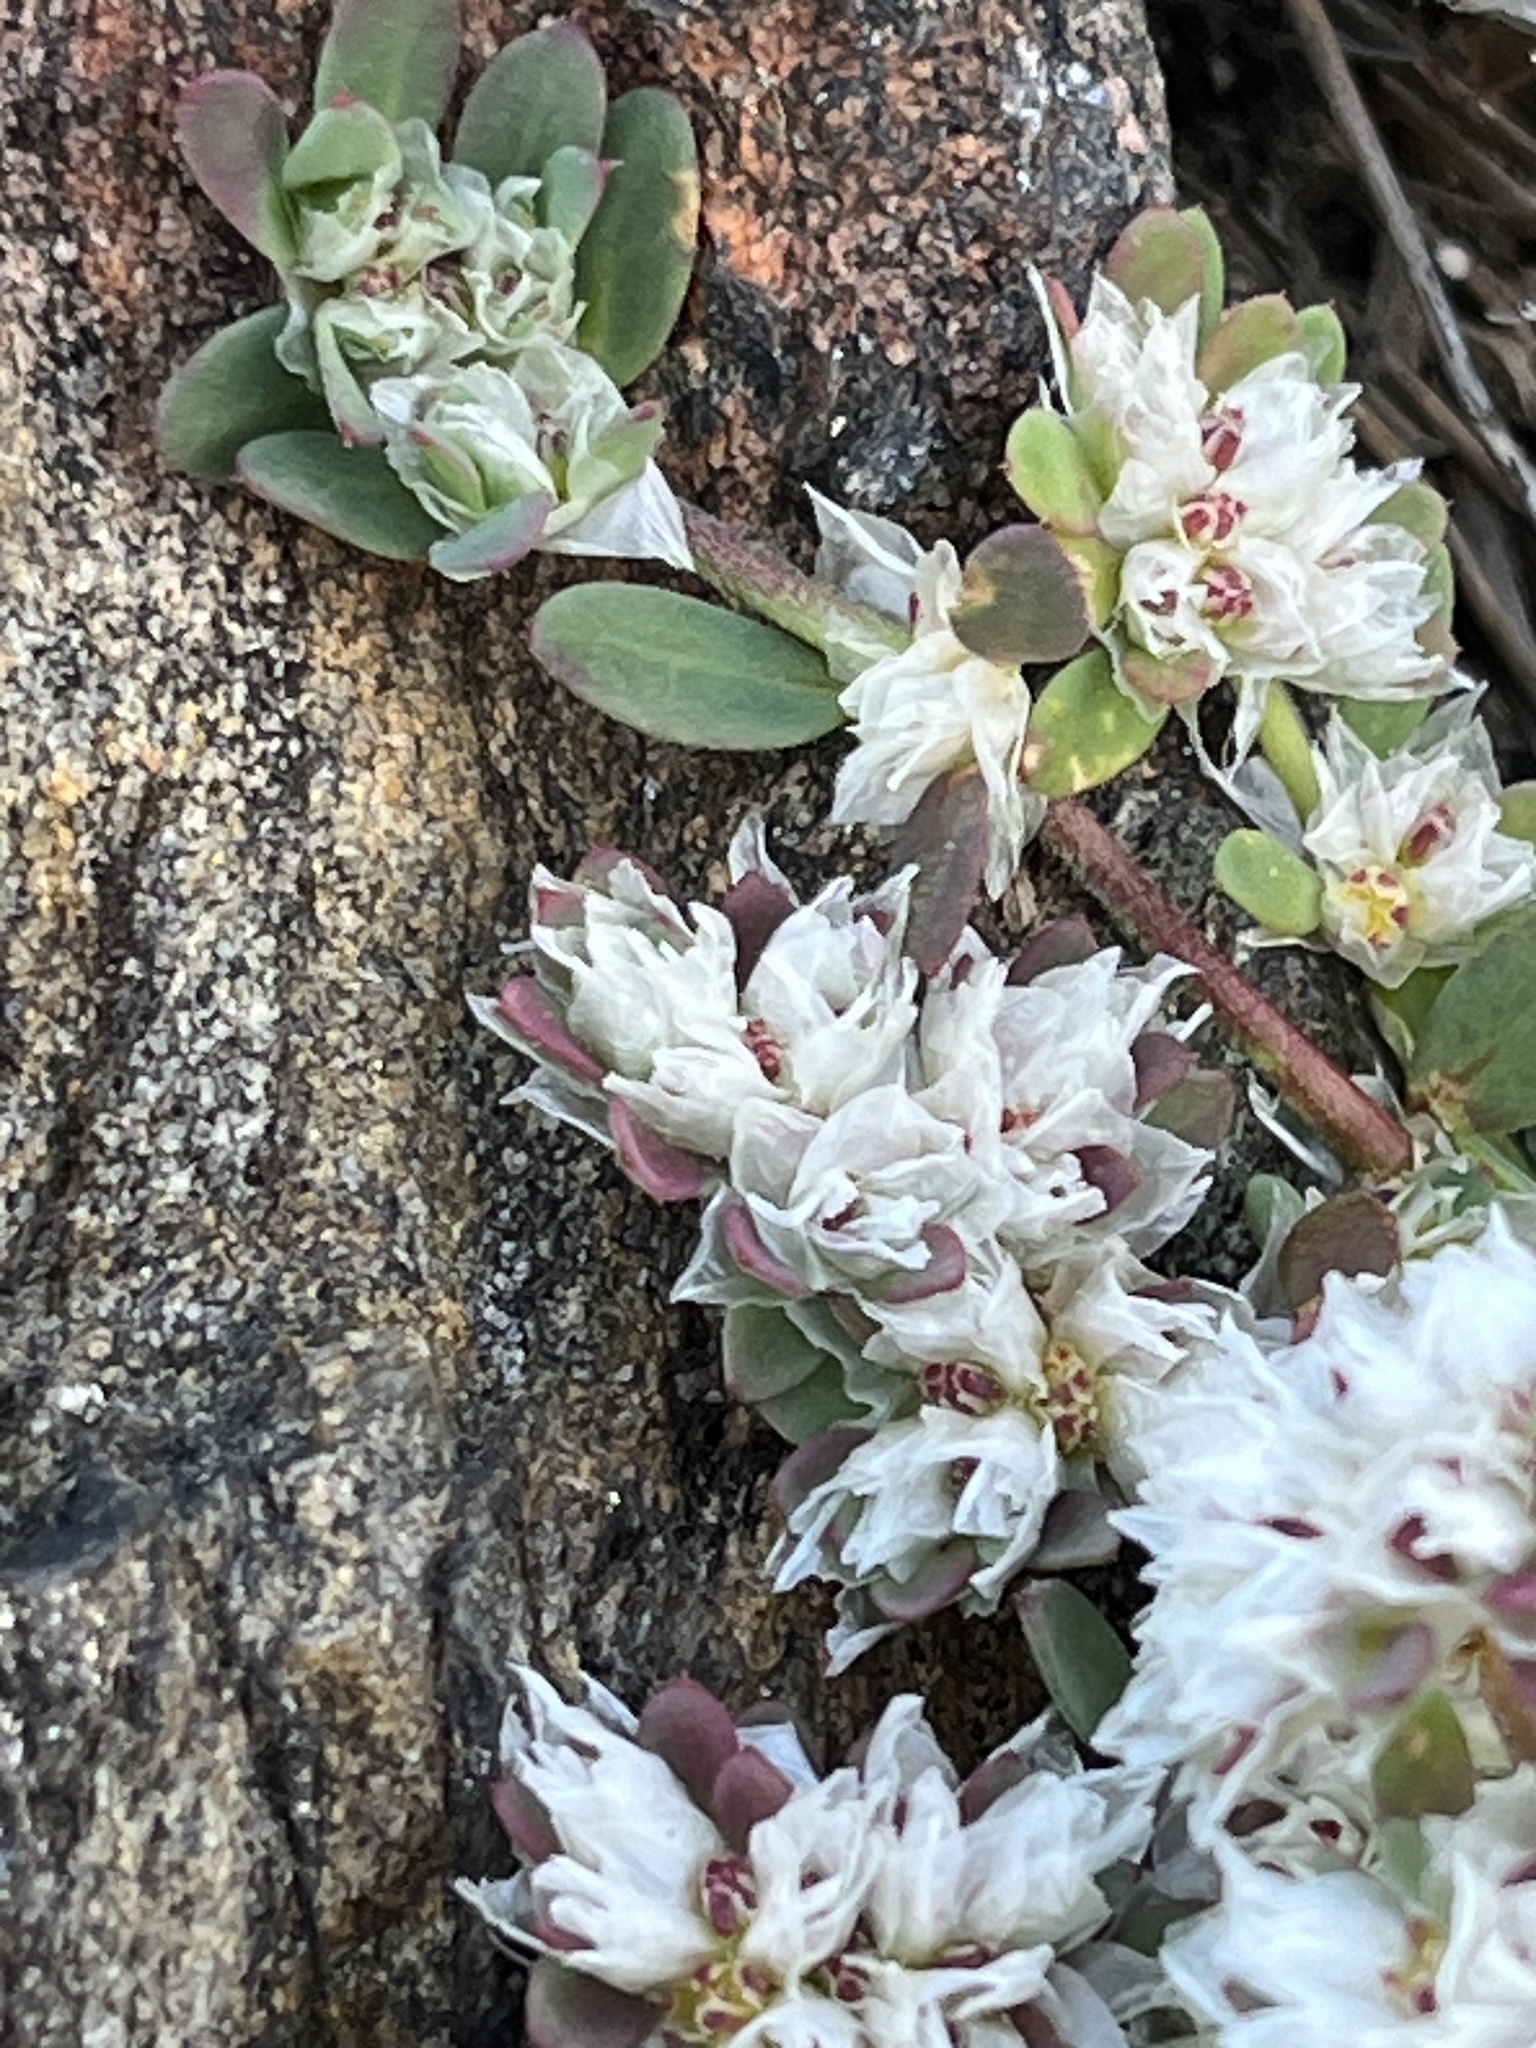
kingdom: Plantae
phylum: Tracheophyta
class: Magnoliopsida
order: Caryophyllales
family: Caryophyllaceae
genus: Paronychia
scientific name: Paronychia argentea
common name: Silver nailroot
